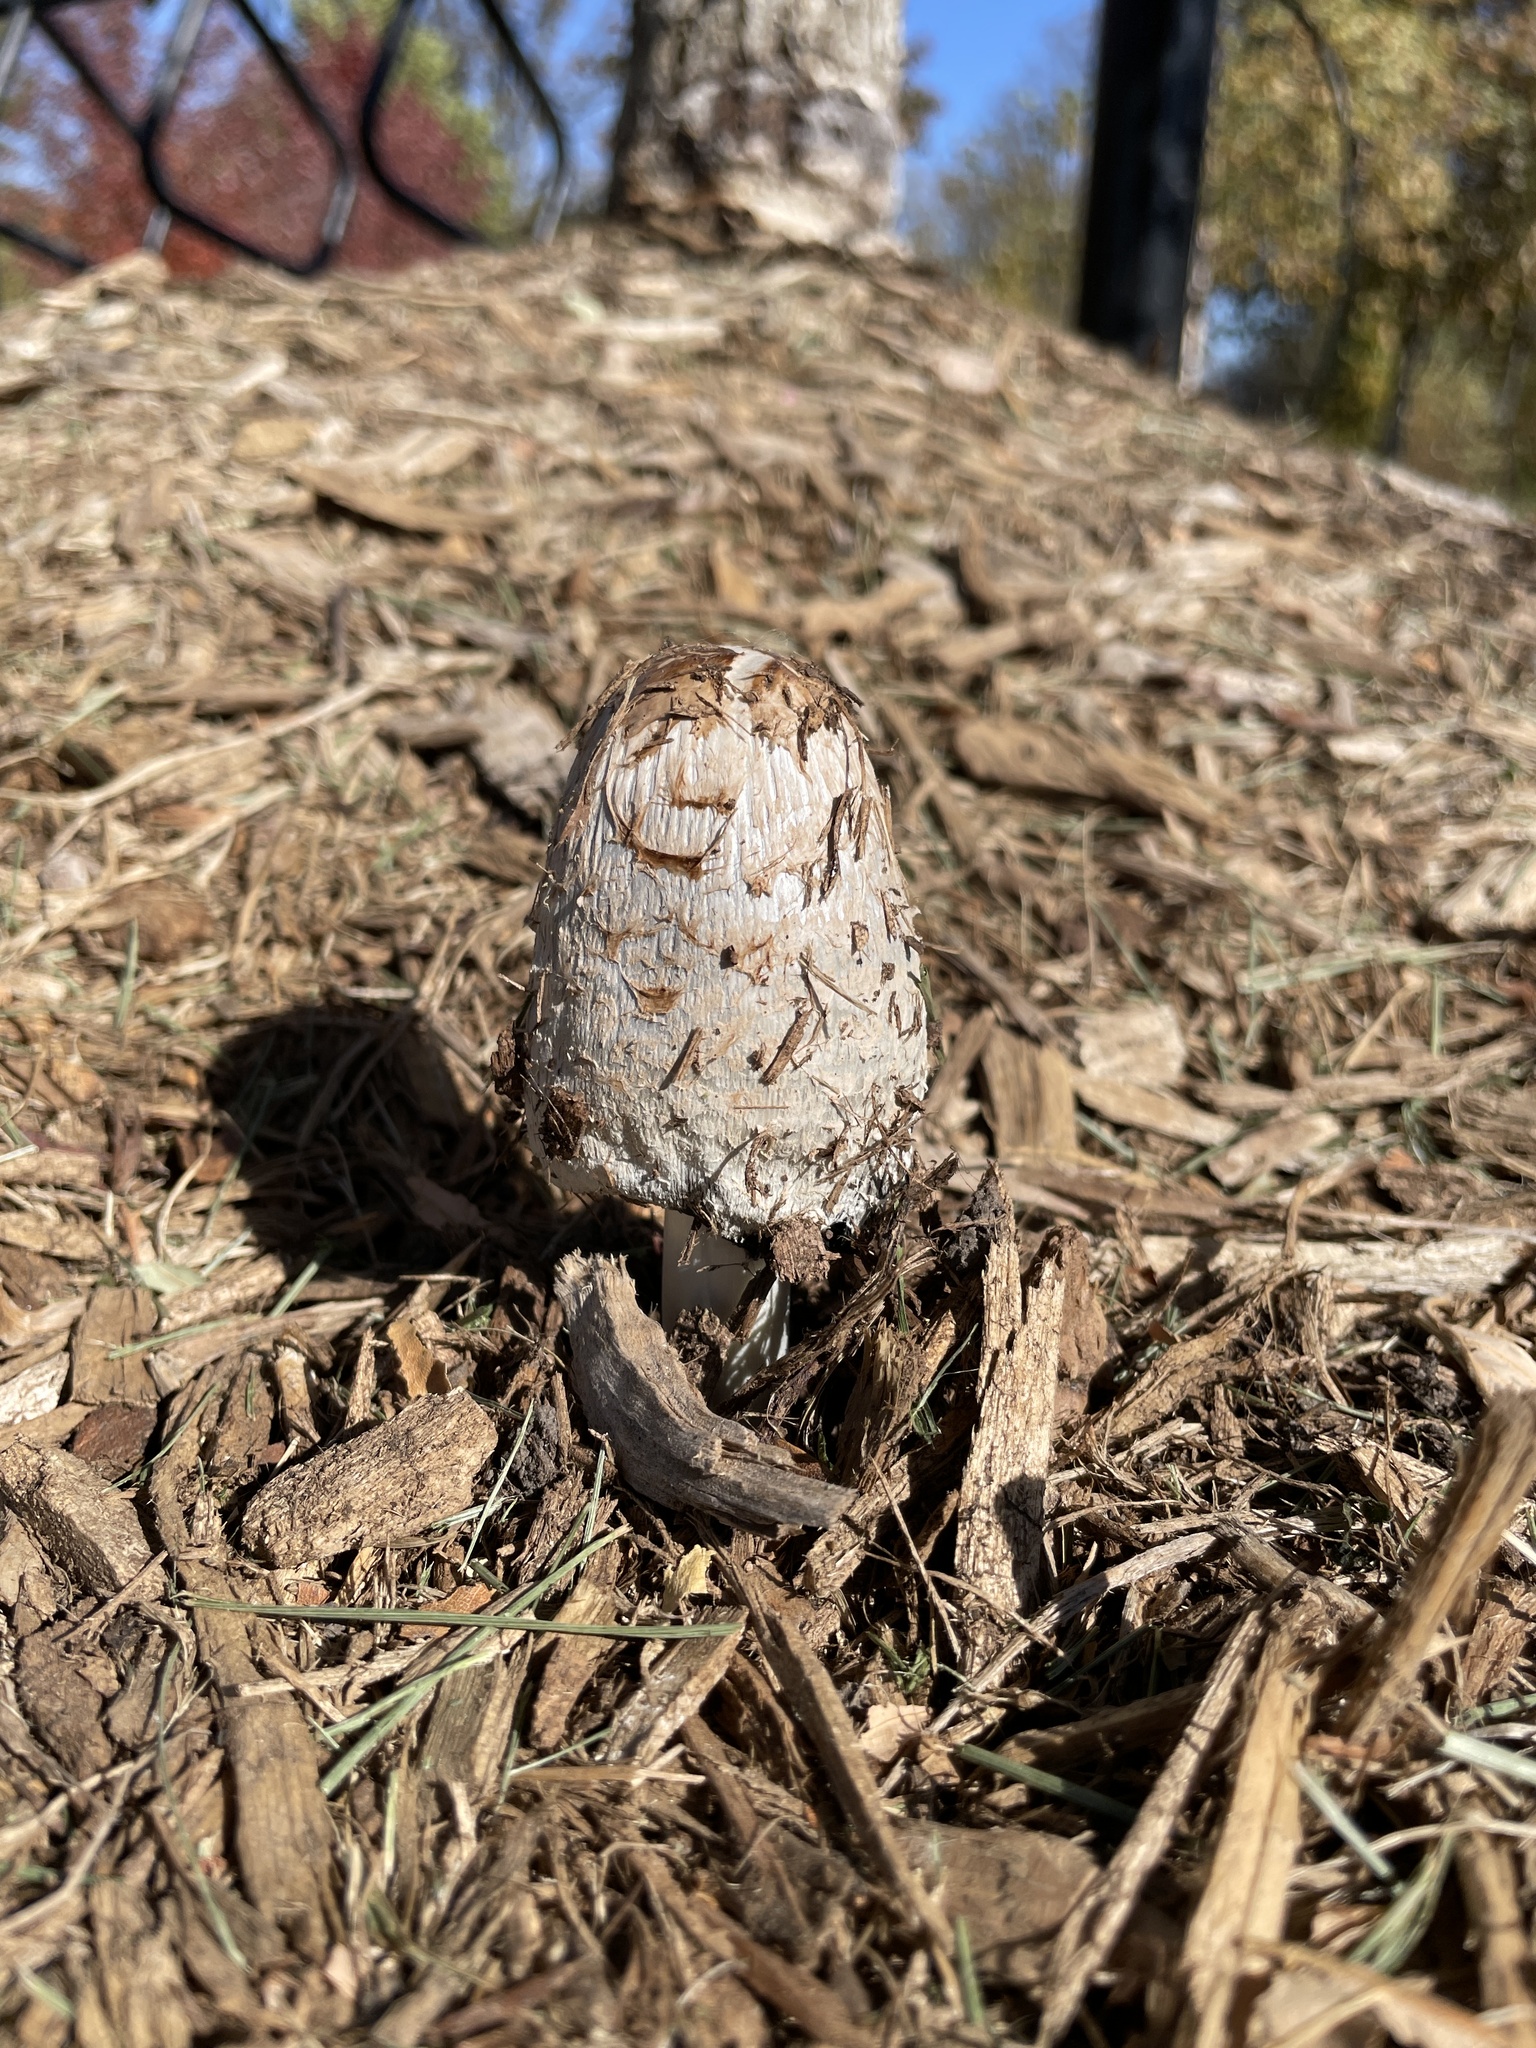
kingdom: Fungi
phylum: Basidiomycota
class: Agaricomycetes
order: Agaricales
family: Agaricaceae
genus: Coprinus
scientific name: Coprinus comatus
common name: Lawyer's wig
